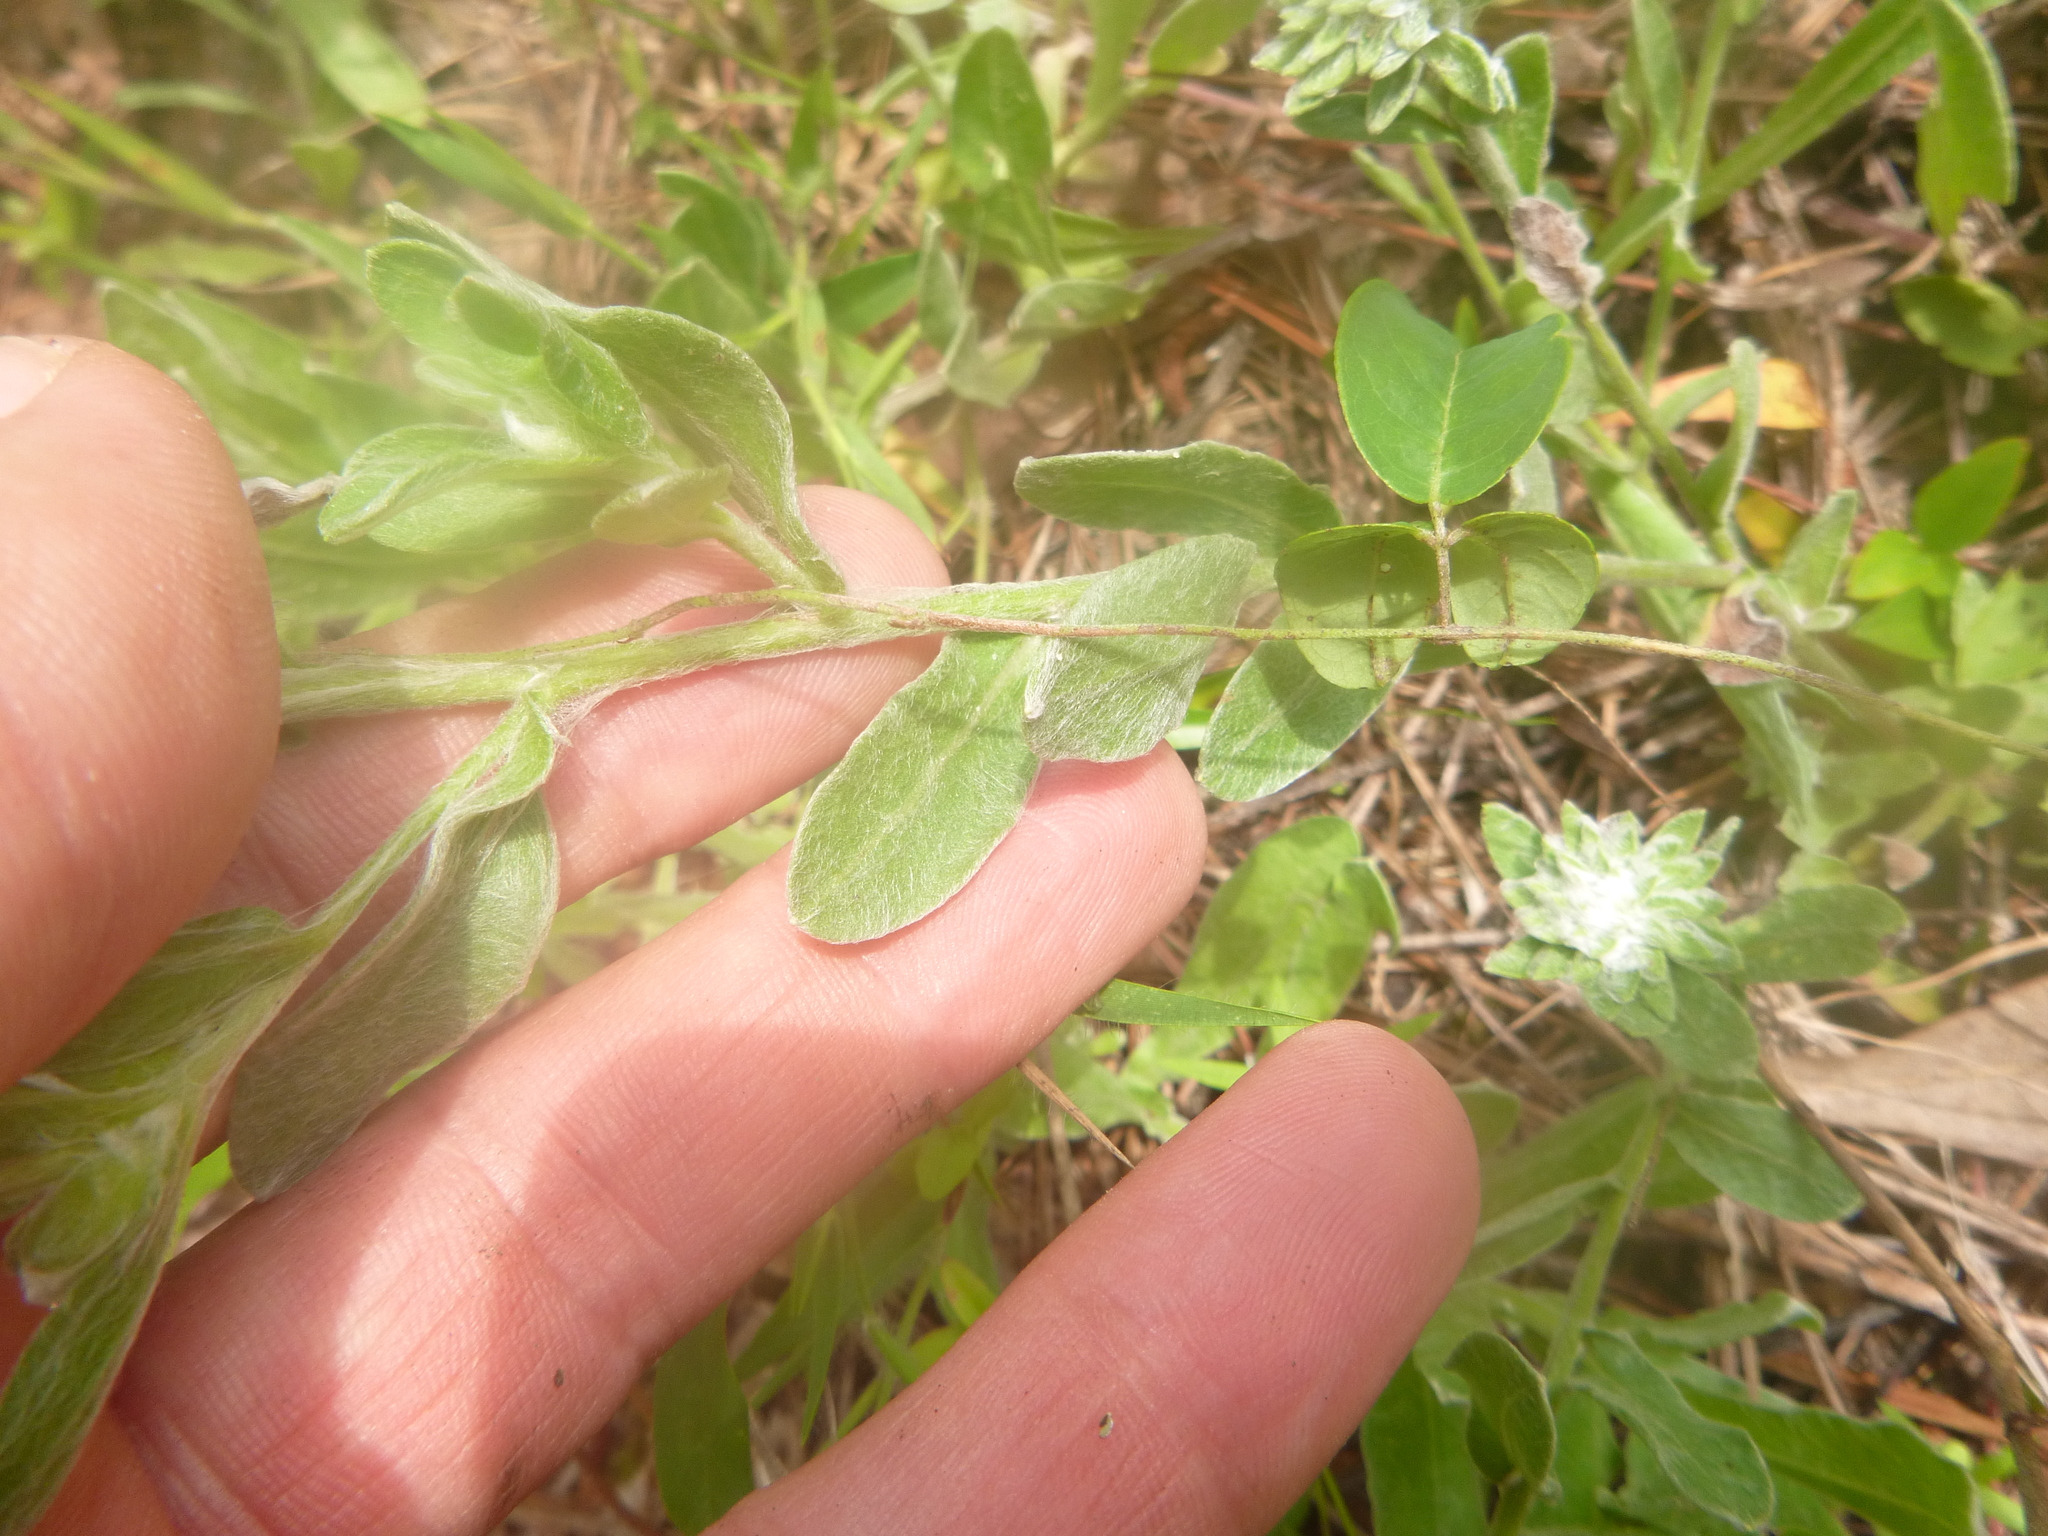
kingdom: Plantae
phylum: Tracheophyta
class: Magnoliopsida
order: Asterales
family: Asteraceae
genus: Chrysopsis
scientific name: Chrysopsis gossypina
